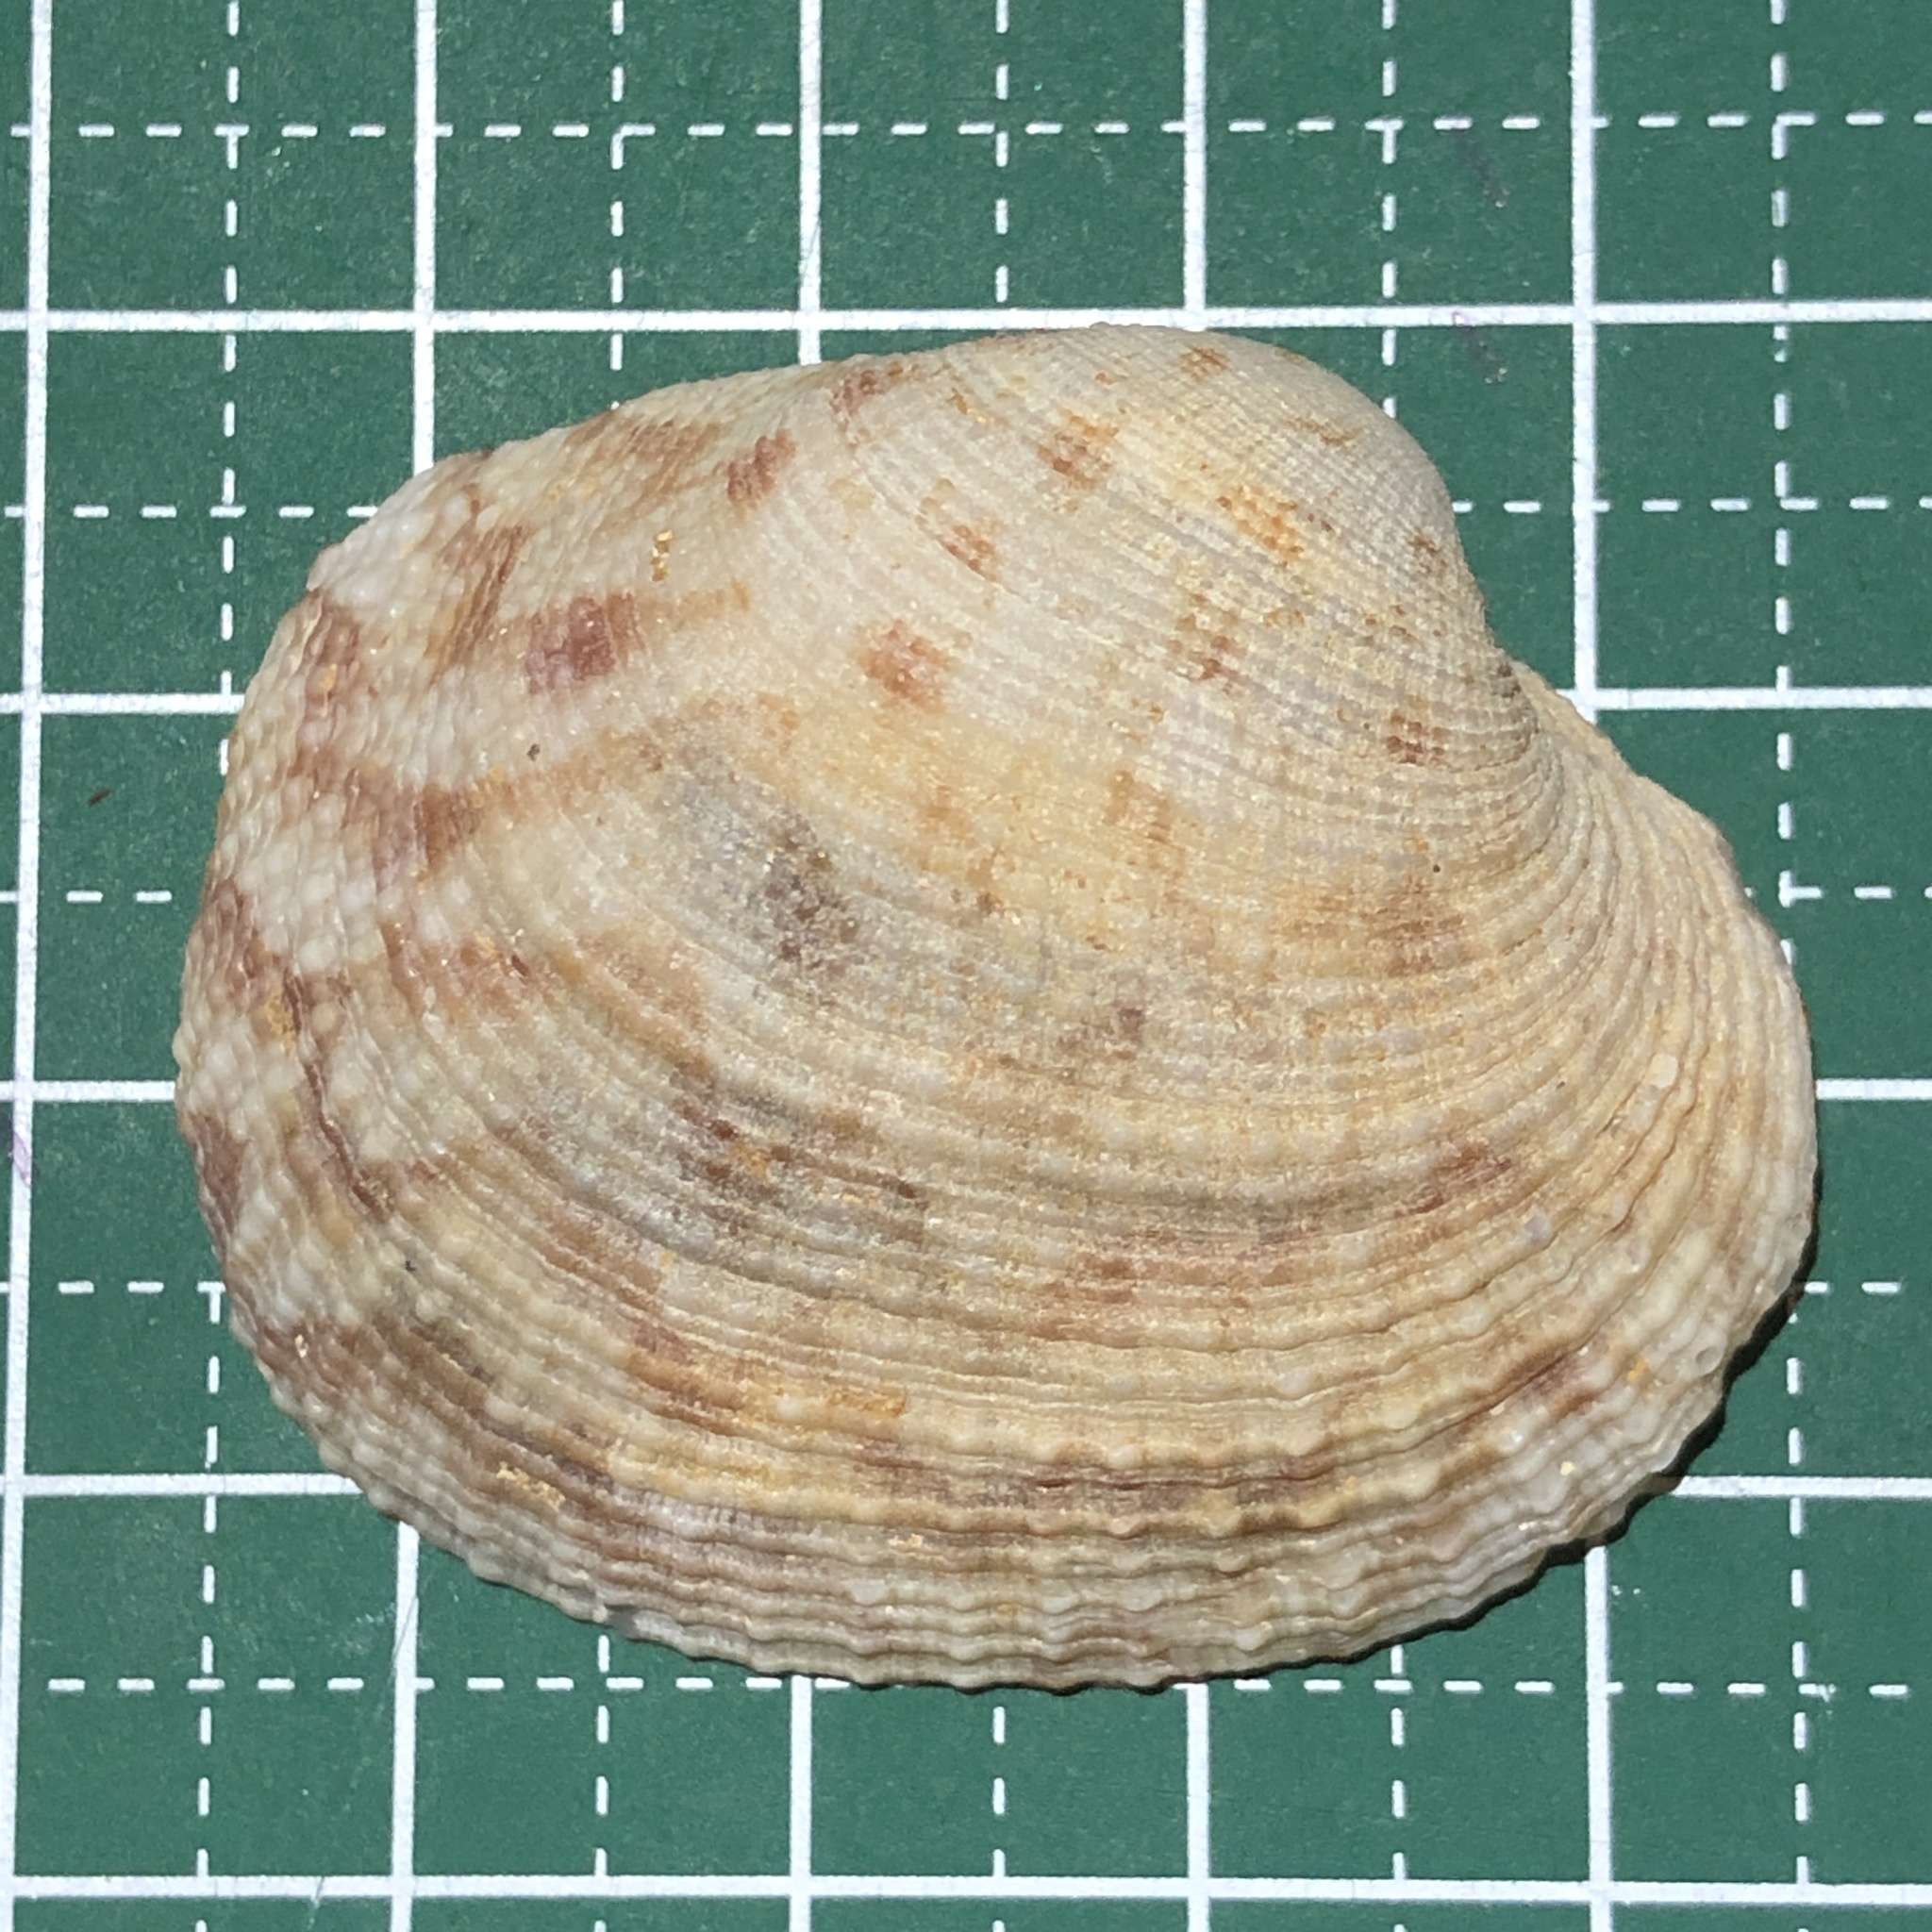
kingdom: Animalia
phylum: Mollusca
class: Bivalvia
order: Venerida
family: Veneridae
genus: Periglypta
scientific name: Periglypta corbis
